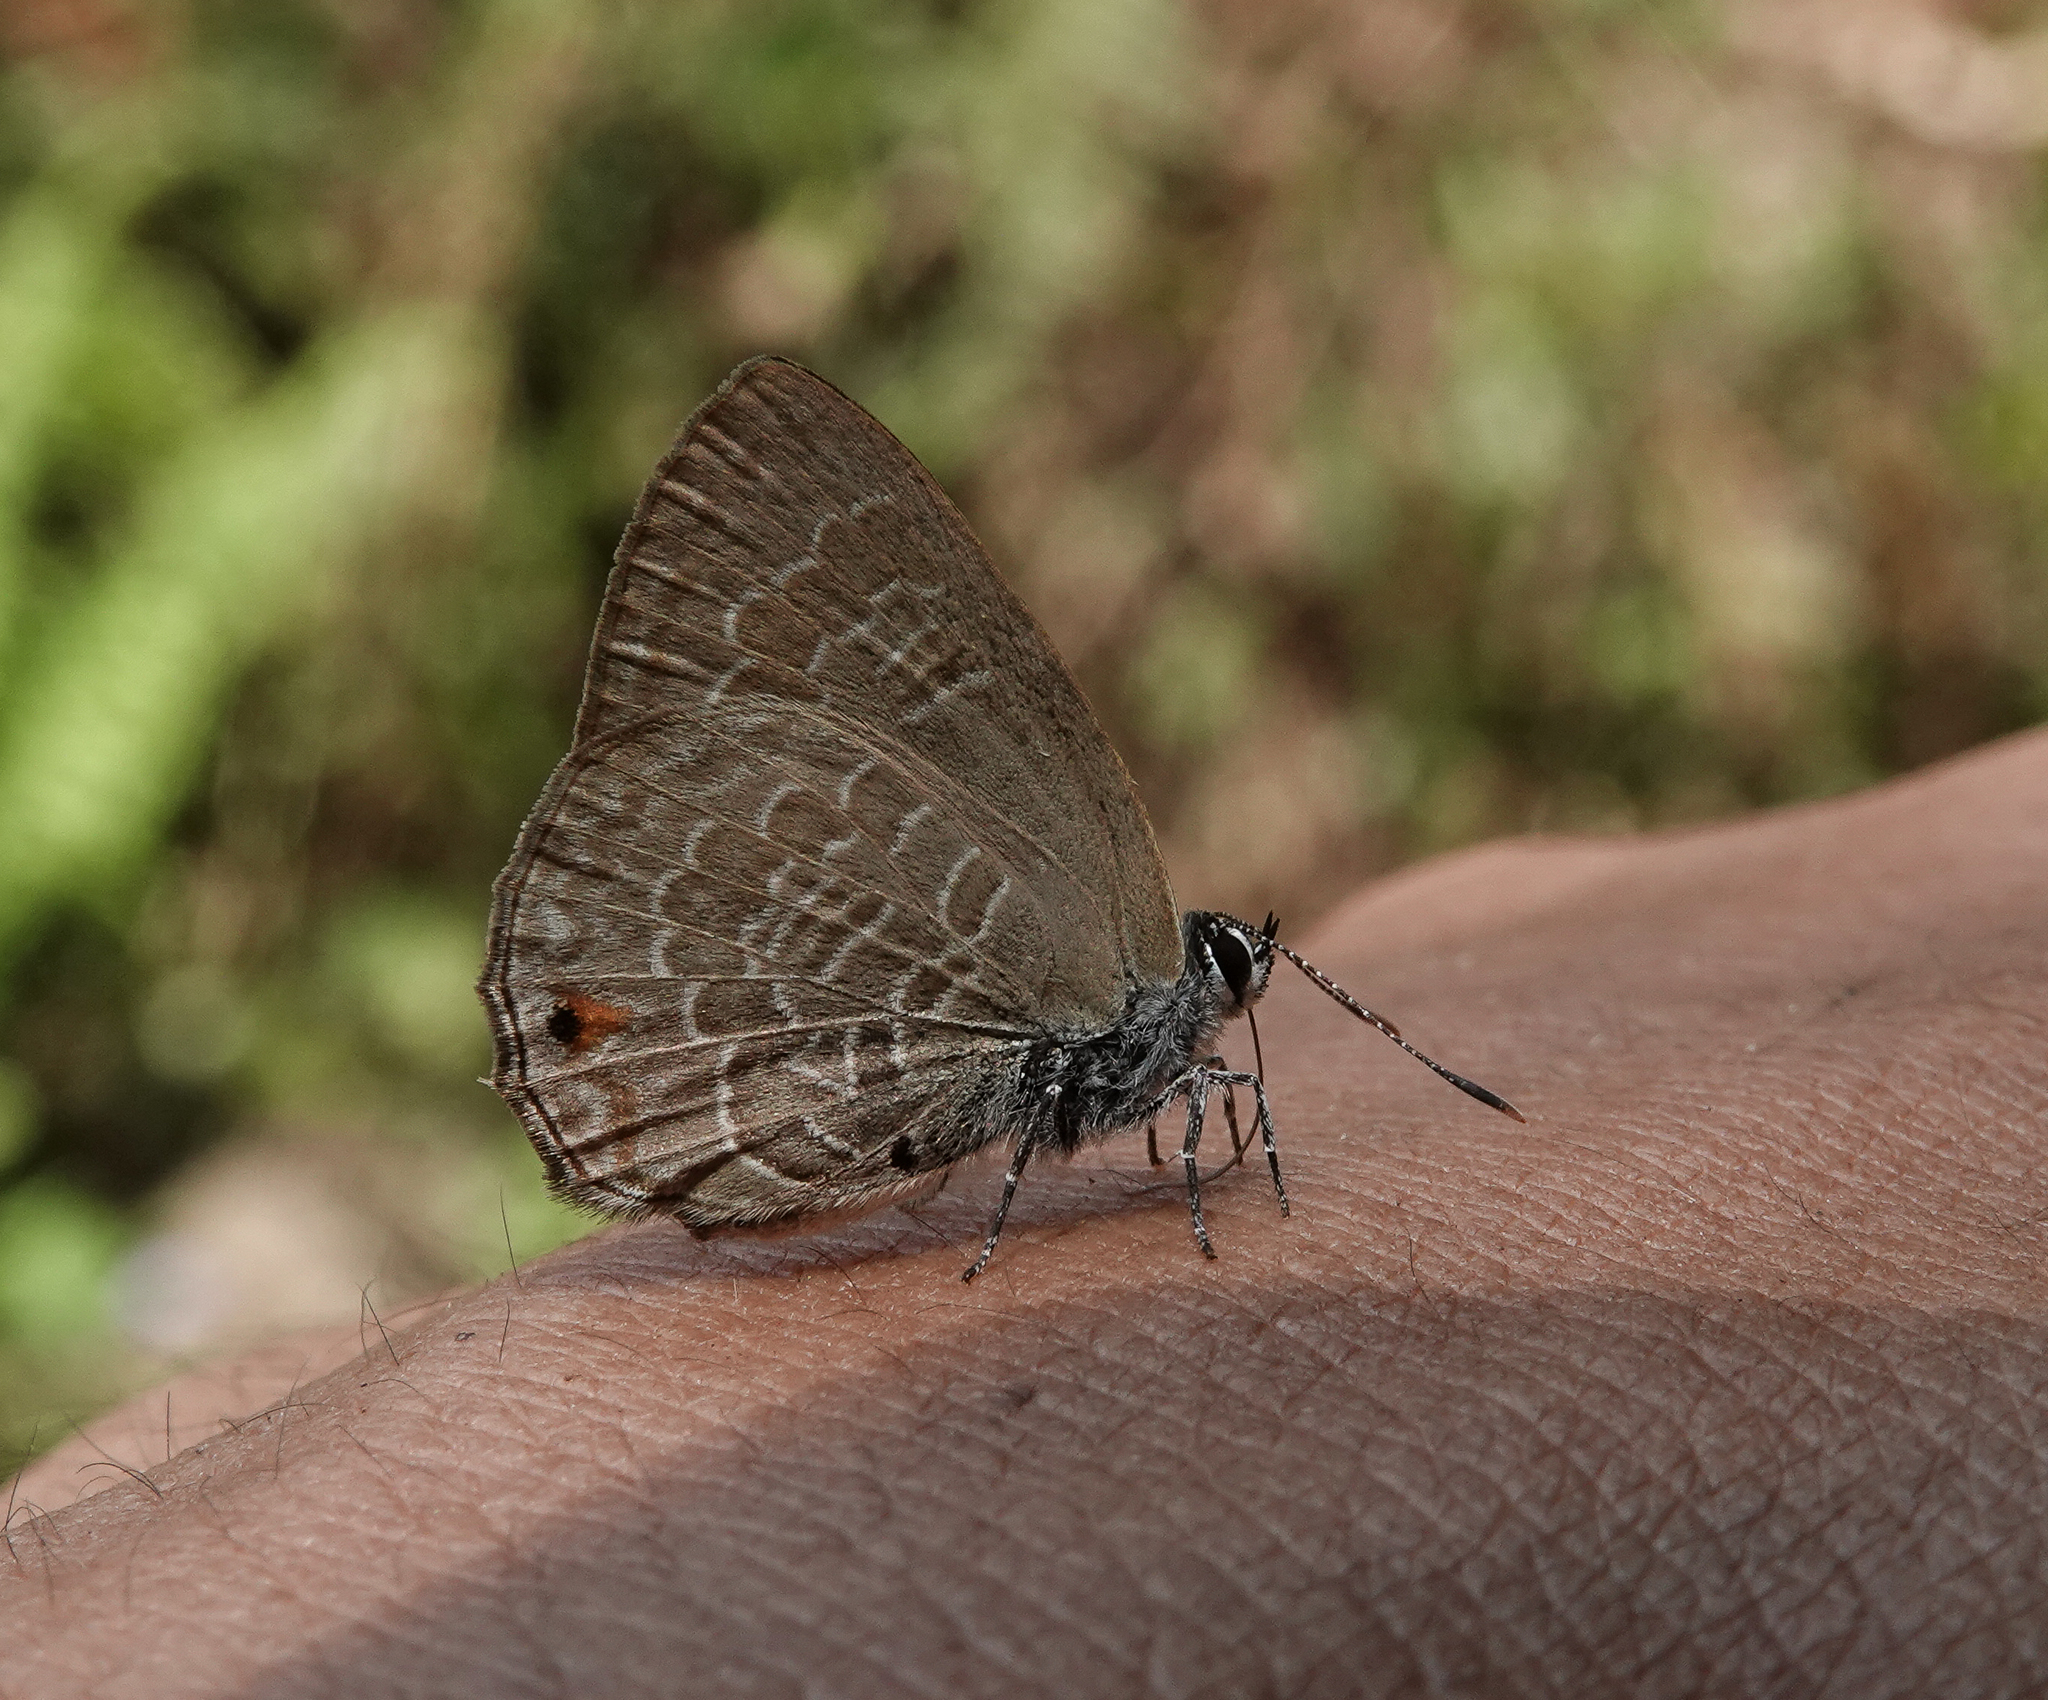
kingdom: Animalia
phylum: Arthropoda
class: Insecta
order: Lepidoptera
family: Lycaenidae
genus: Anthene
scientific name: Anthene emolus
